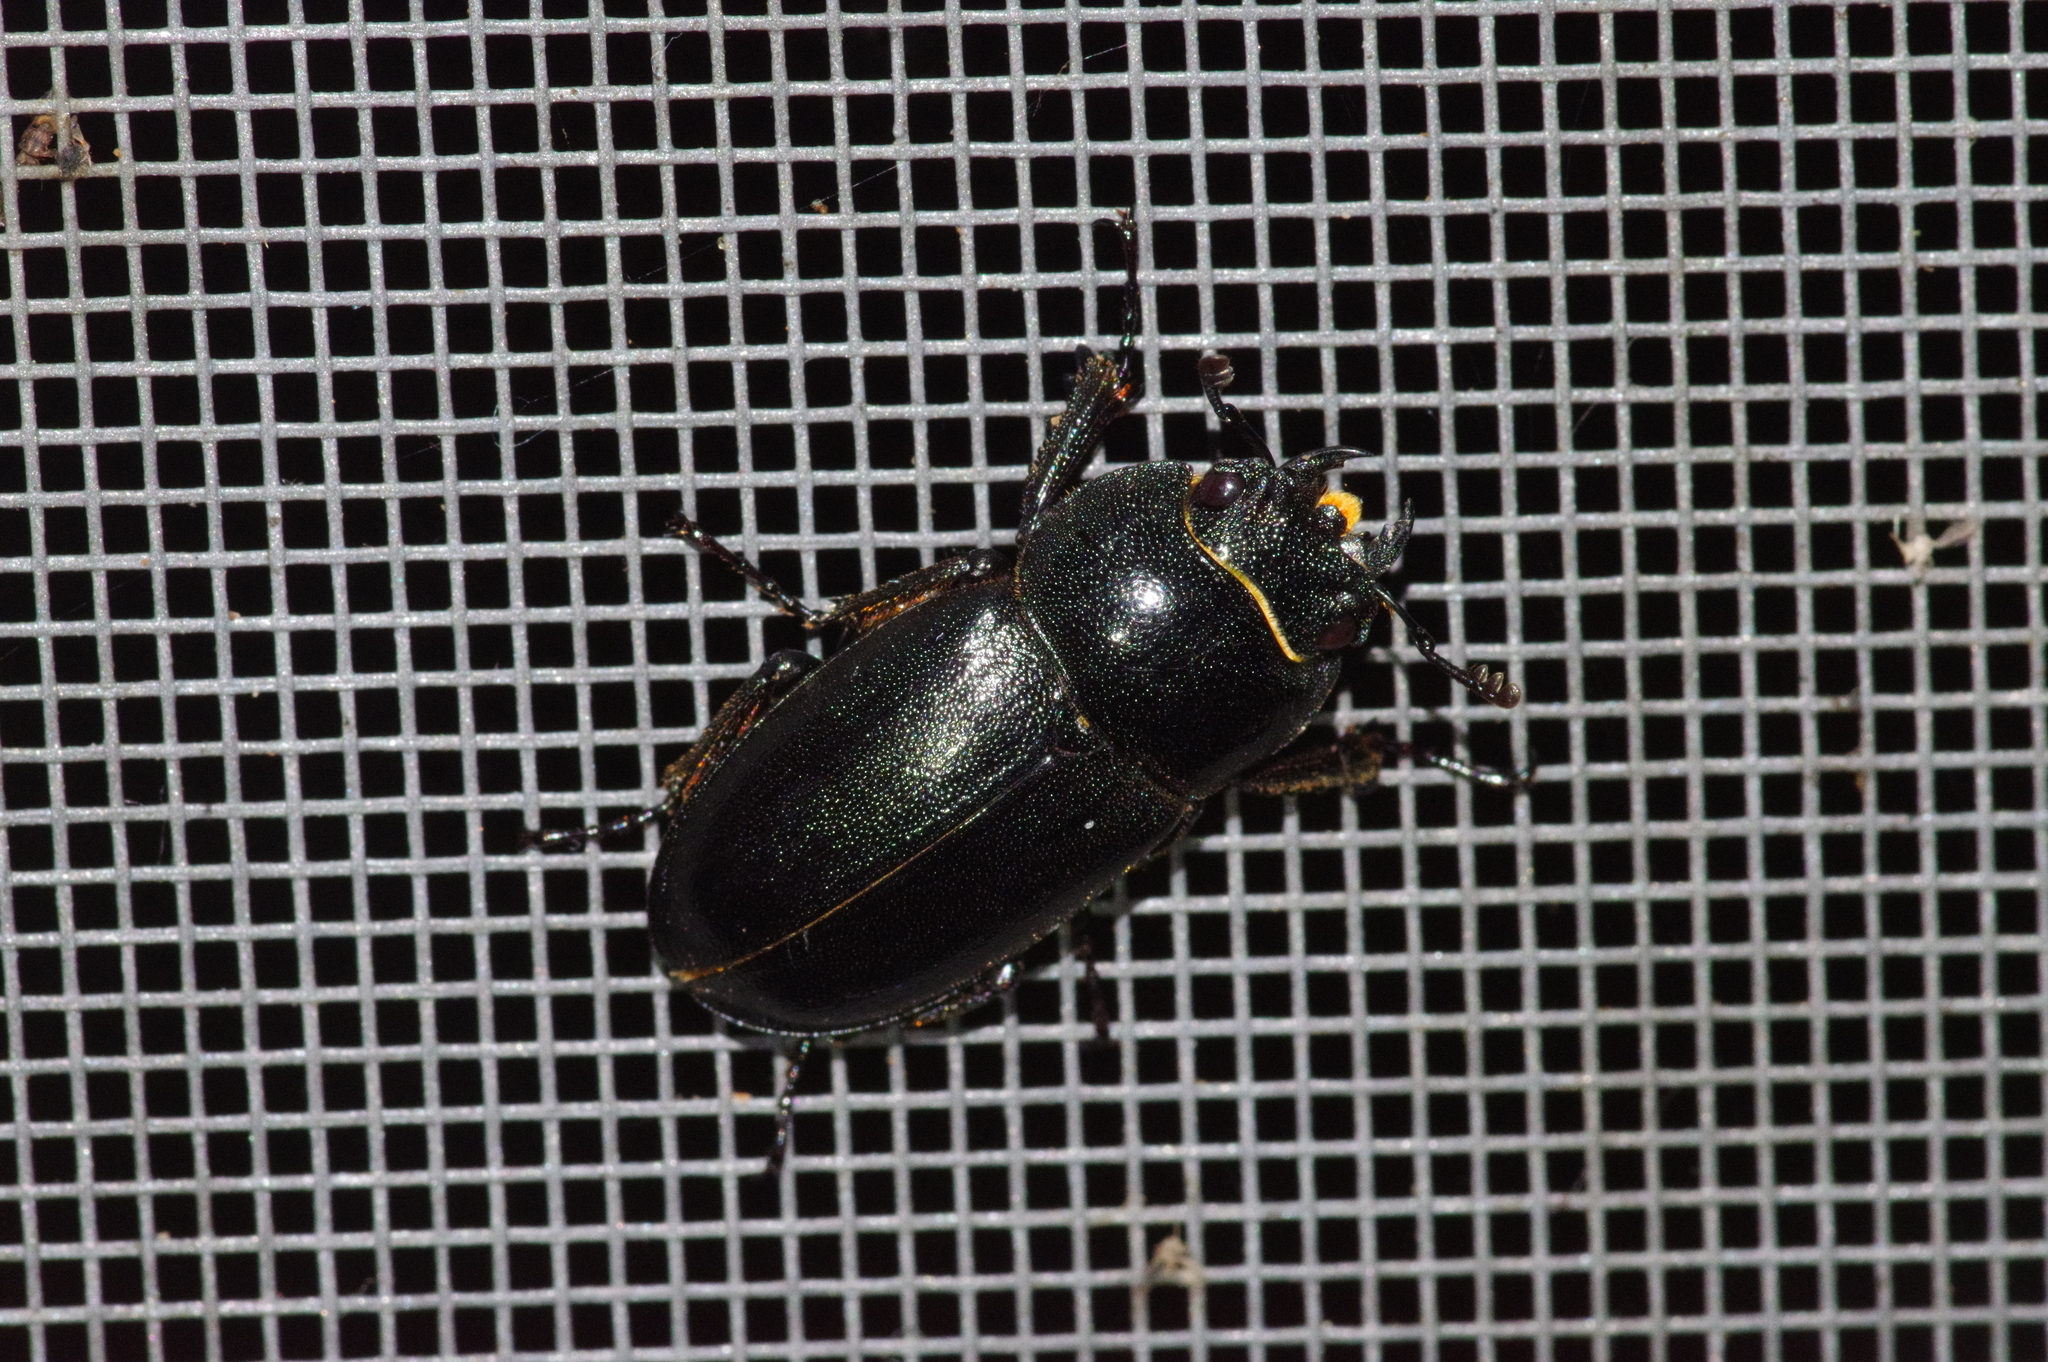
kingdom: Animalia
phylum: Arthropoda
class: Insecta
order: Coleoptera
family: Lucanidae
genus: Prosopocoilus
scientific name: Prosopocoilus dissimilis
